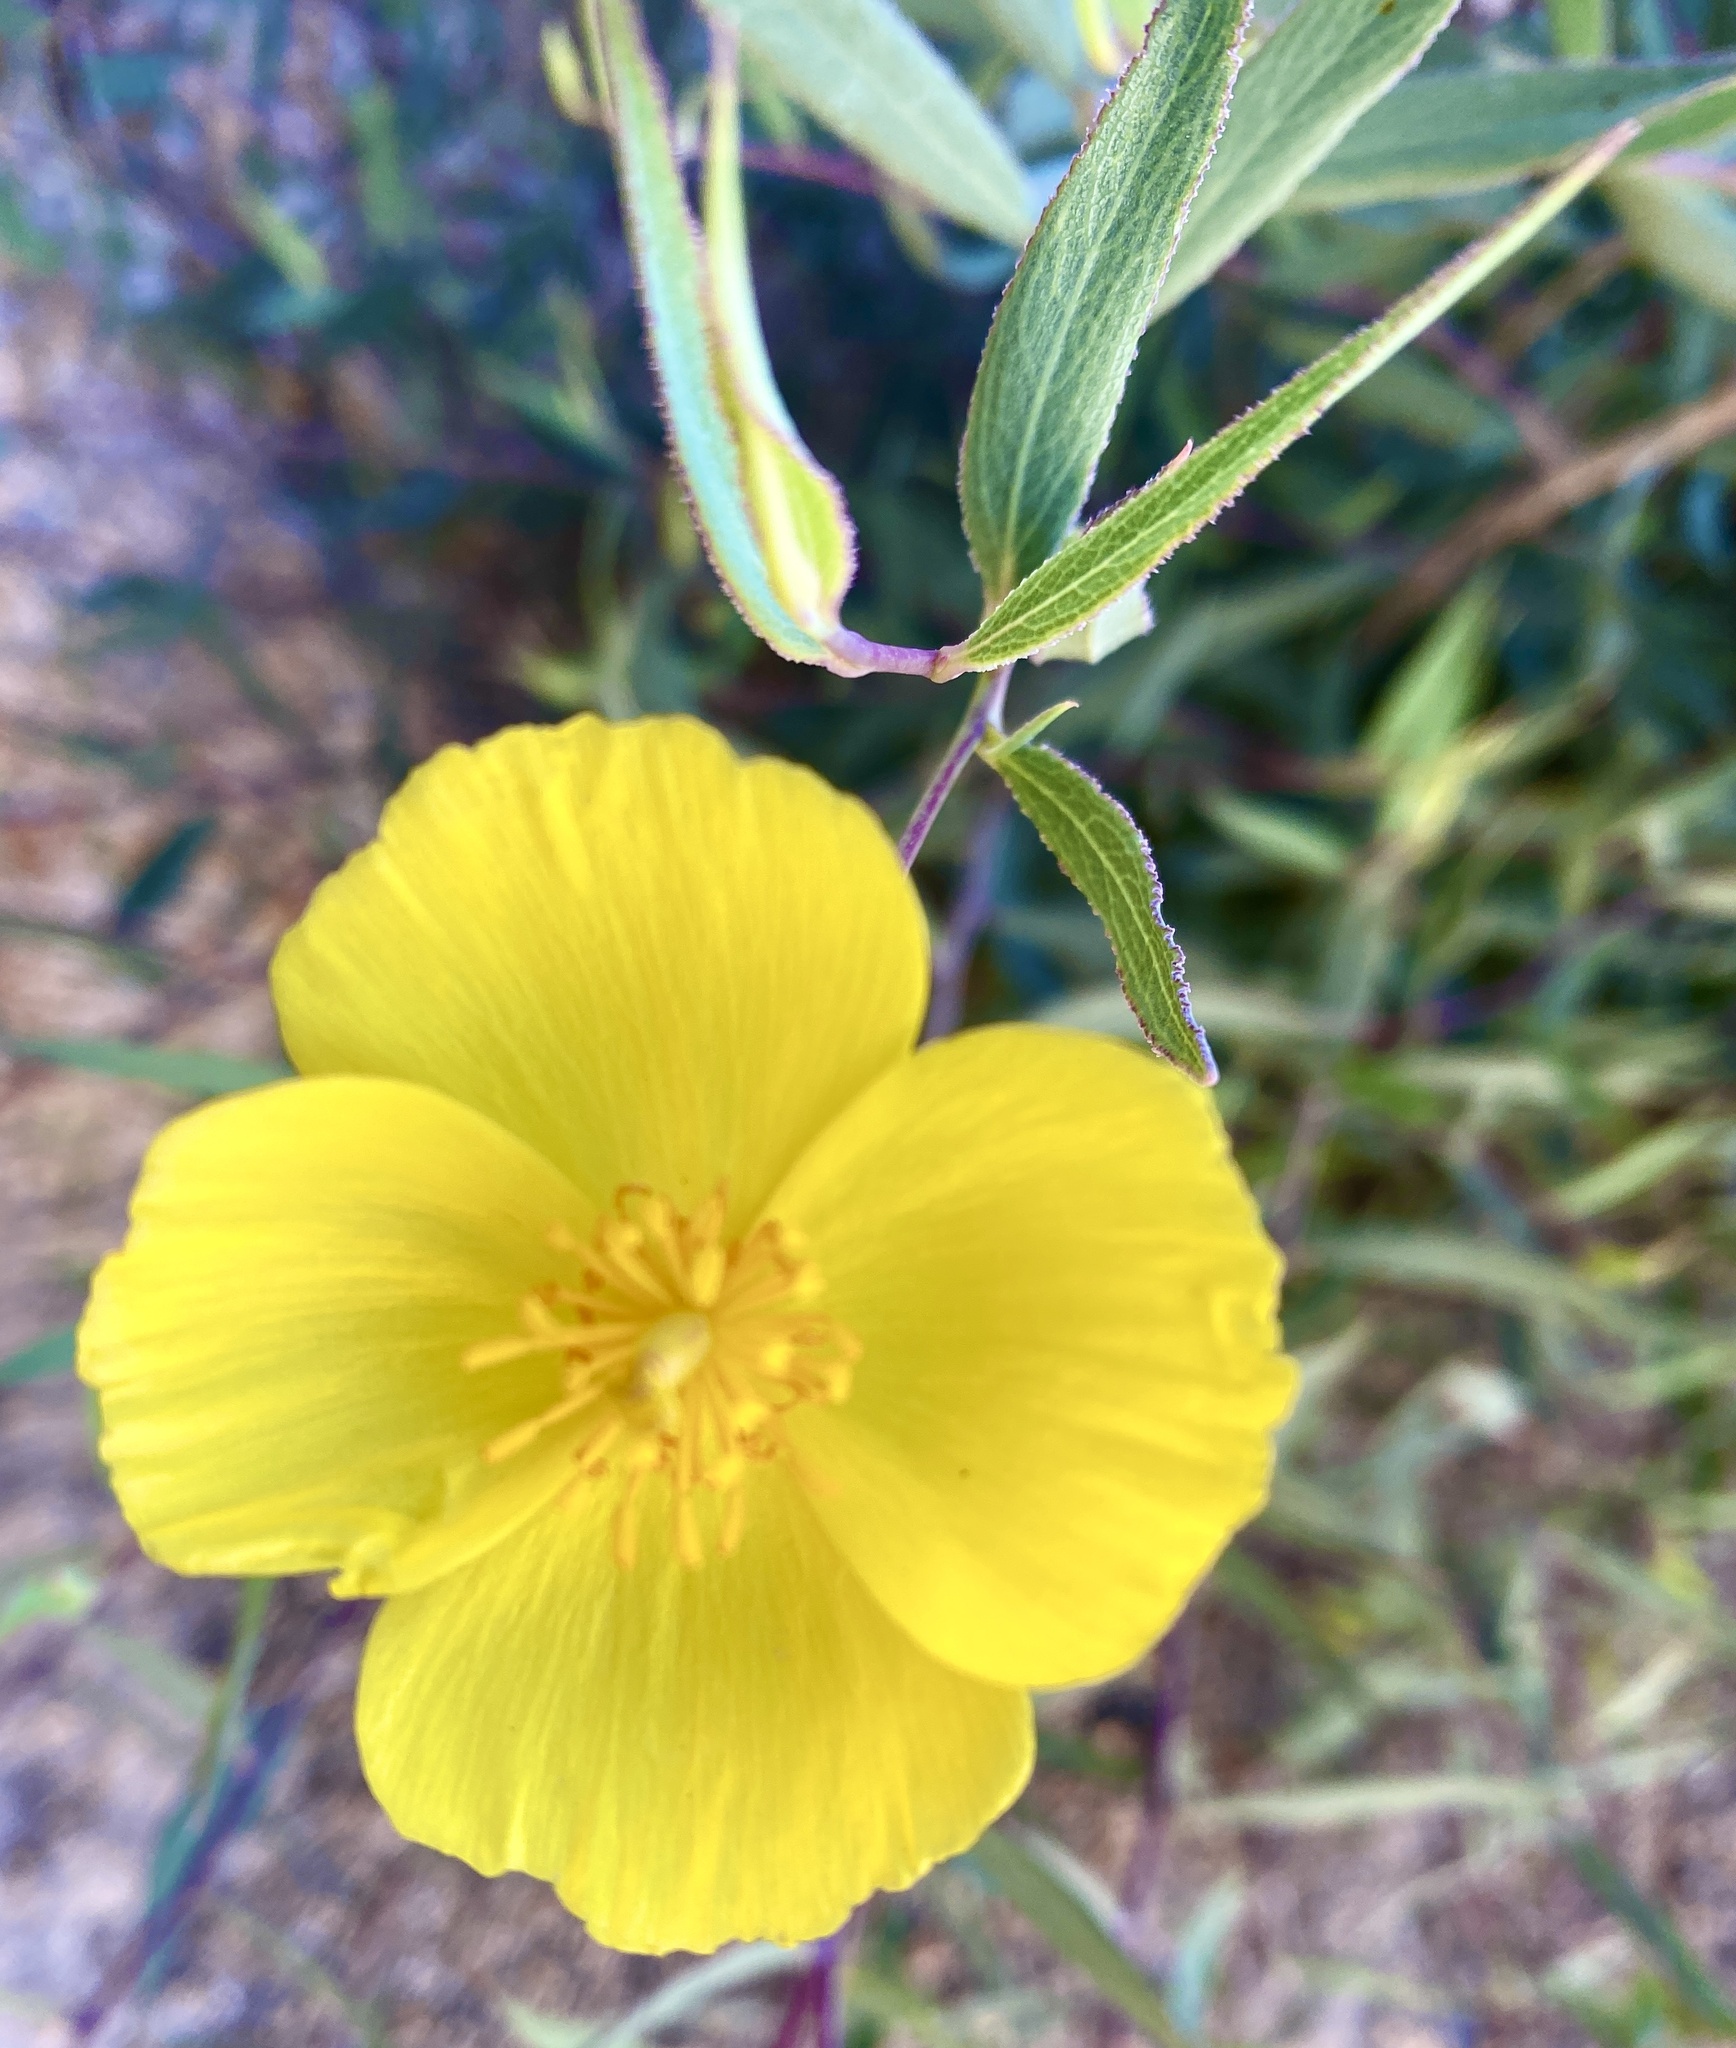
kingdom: Plantae
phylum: Tracheophyta
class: Magnoliopsida
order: Ranunculales
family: Papaveraceae
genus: Dendromecon
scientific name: Dendromecon rigida
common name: Tree poppy
